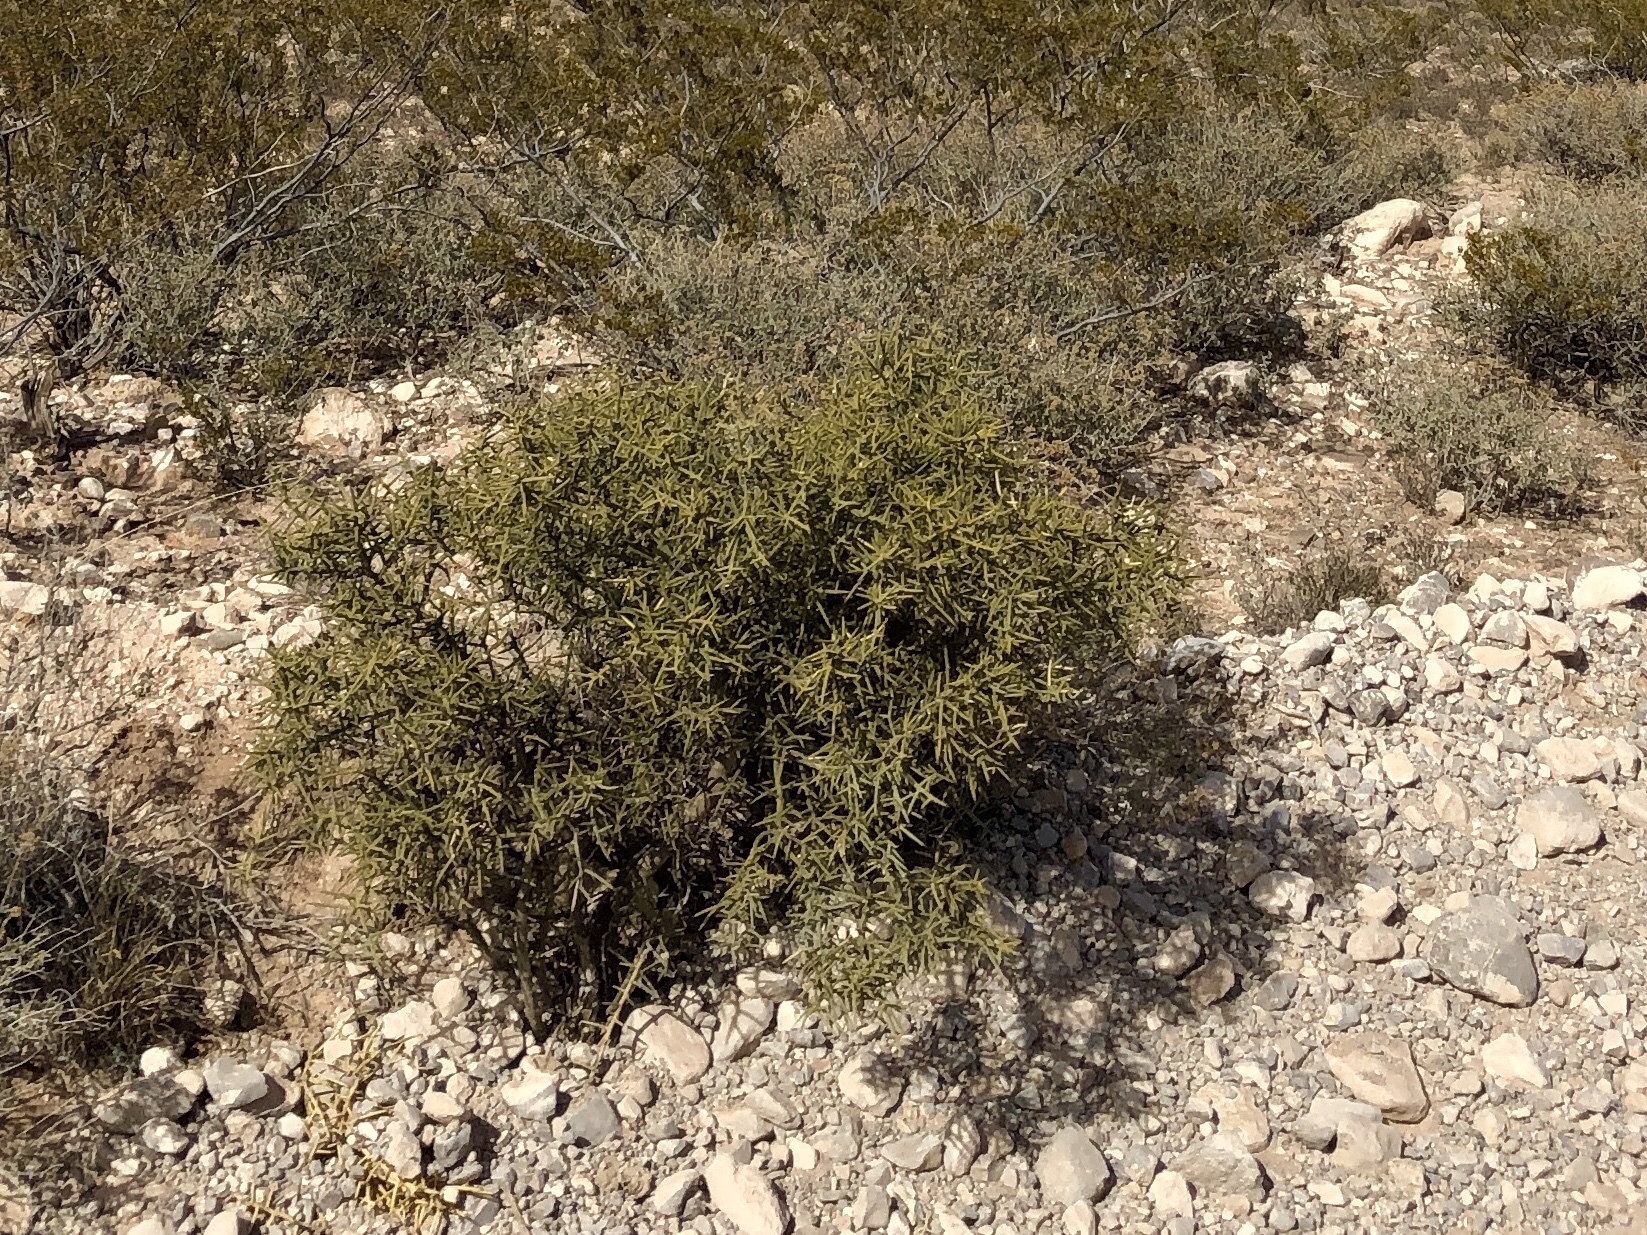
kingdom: Plantae
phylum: Tracheophyta
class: Magnoliopsida
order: Brassicales
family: Koeberliniaceae
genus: Koeberlinia
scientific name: Koeberlinia spinosa
